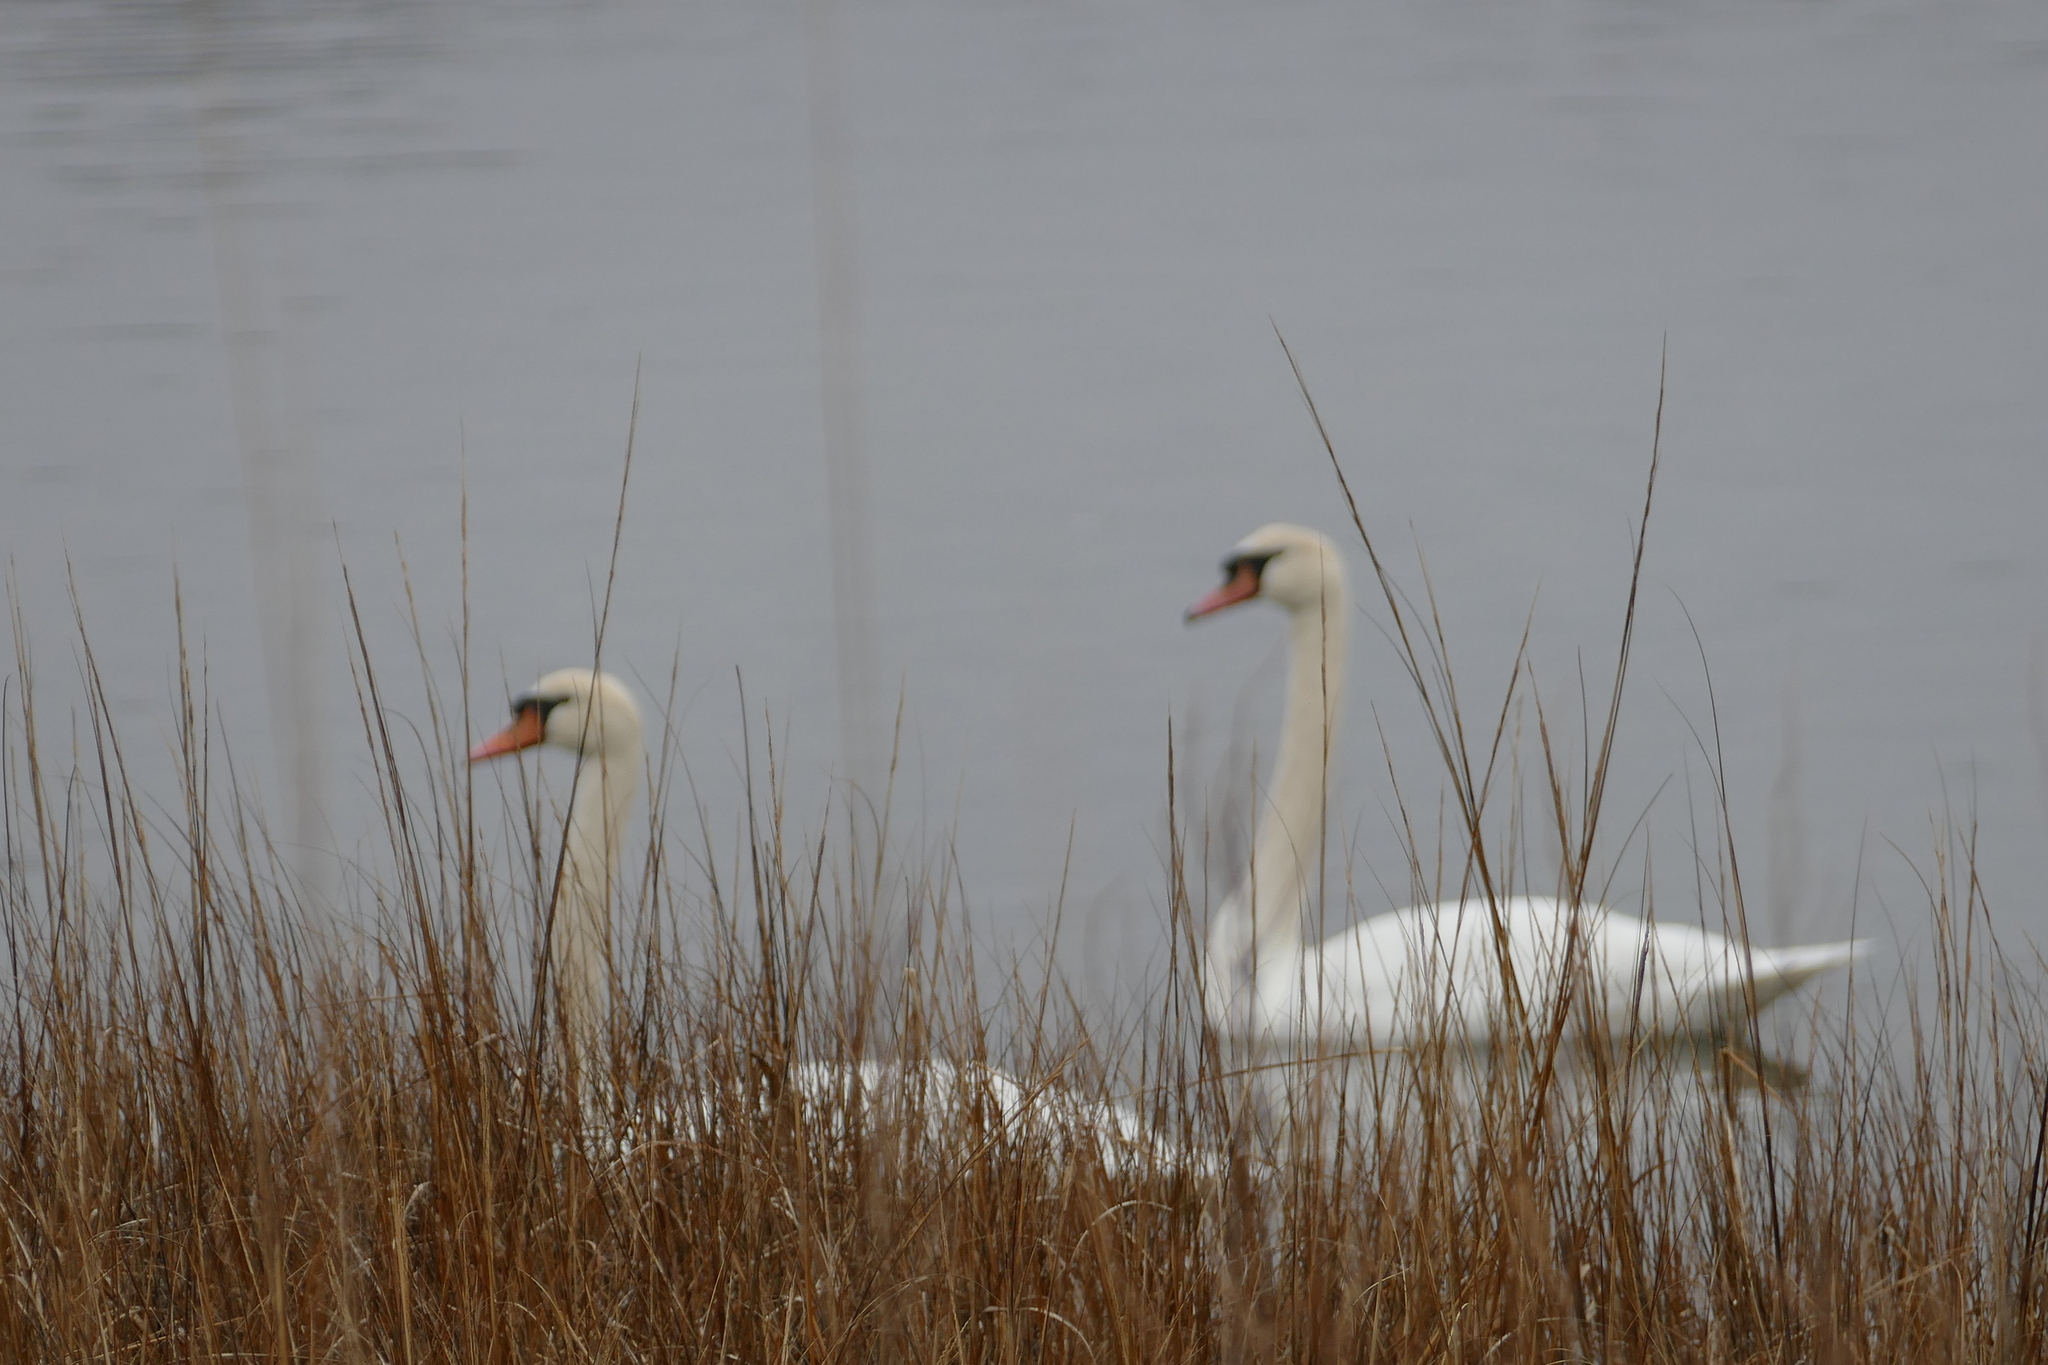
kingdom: Animalia
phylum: Chordata
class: Aves
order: Anseriformes
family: Anatidae
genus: Cygnus
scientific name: Cygnus olor
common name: Mute swan
